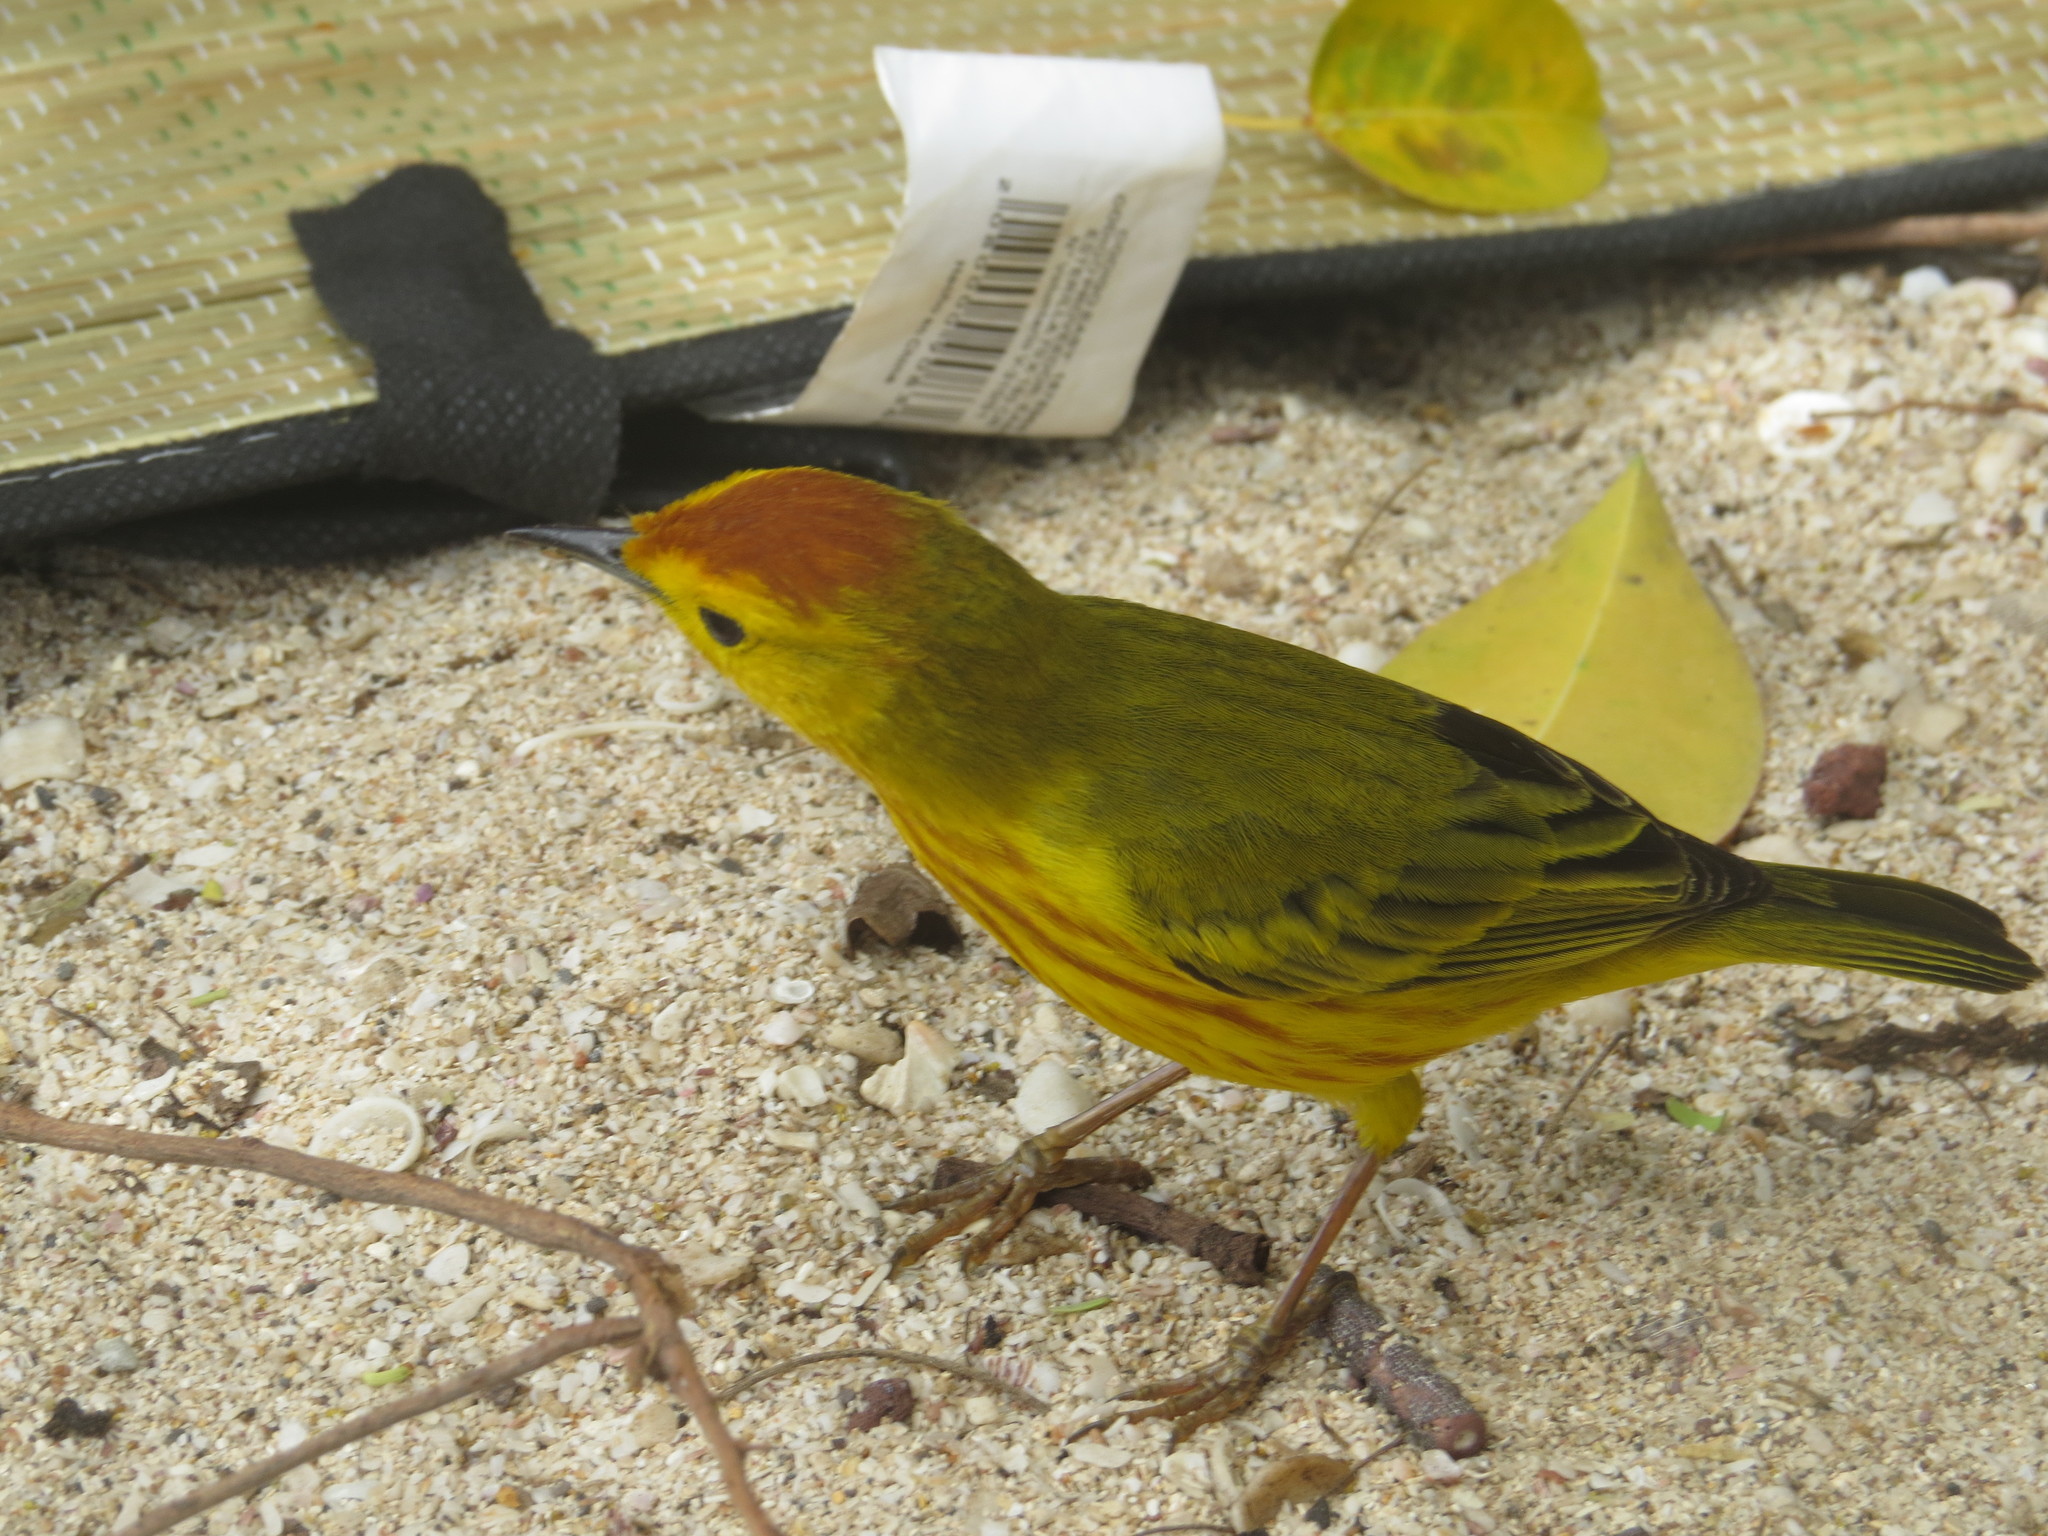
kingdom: Animalia
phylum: Chordata
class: Aves
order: Passeriformes
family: Parulidae
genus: Setophaga
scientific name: Setophaga petechia
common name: Yellow warbler
